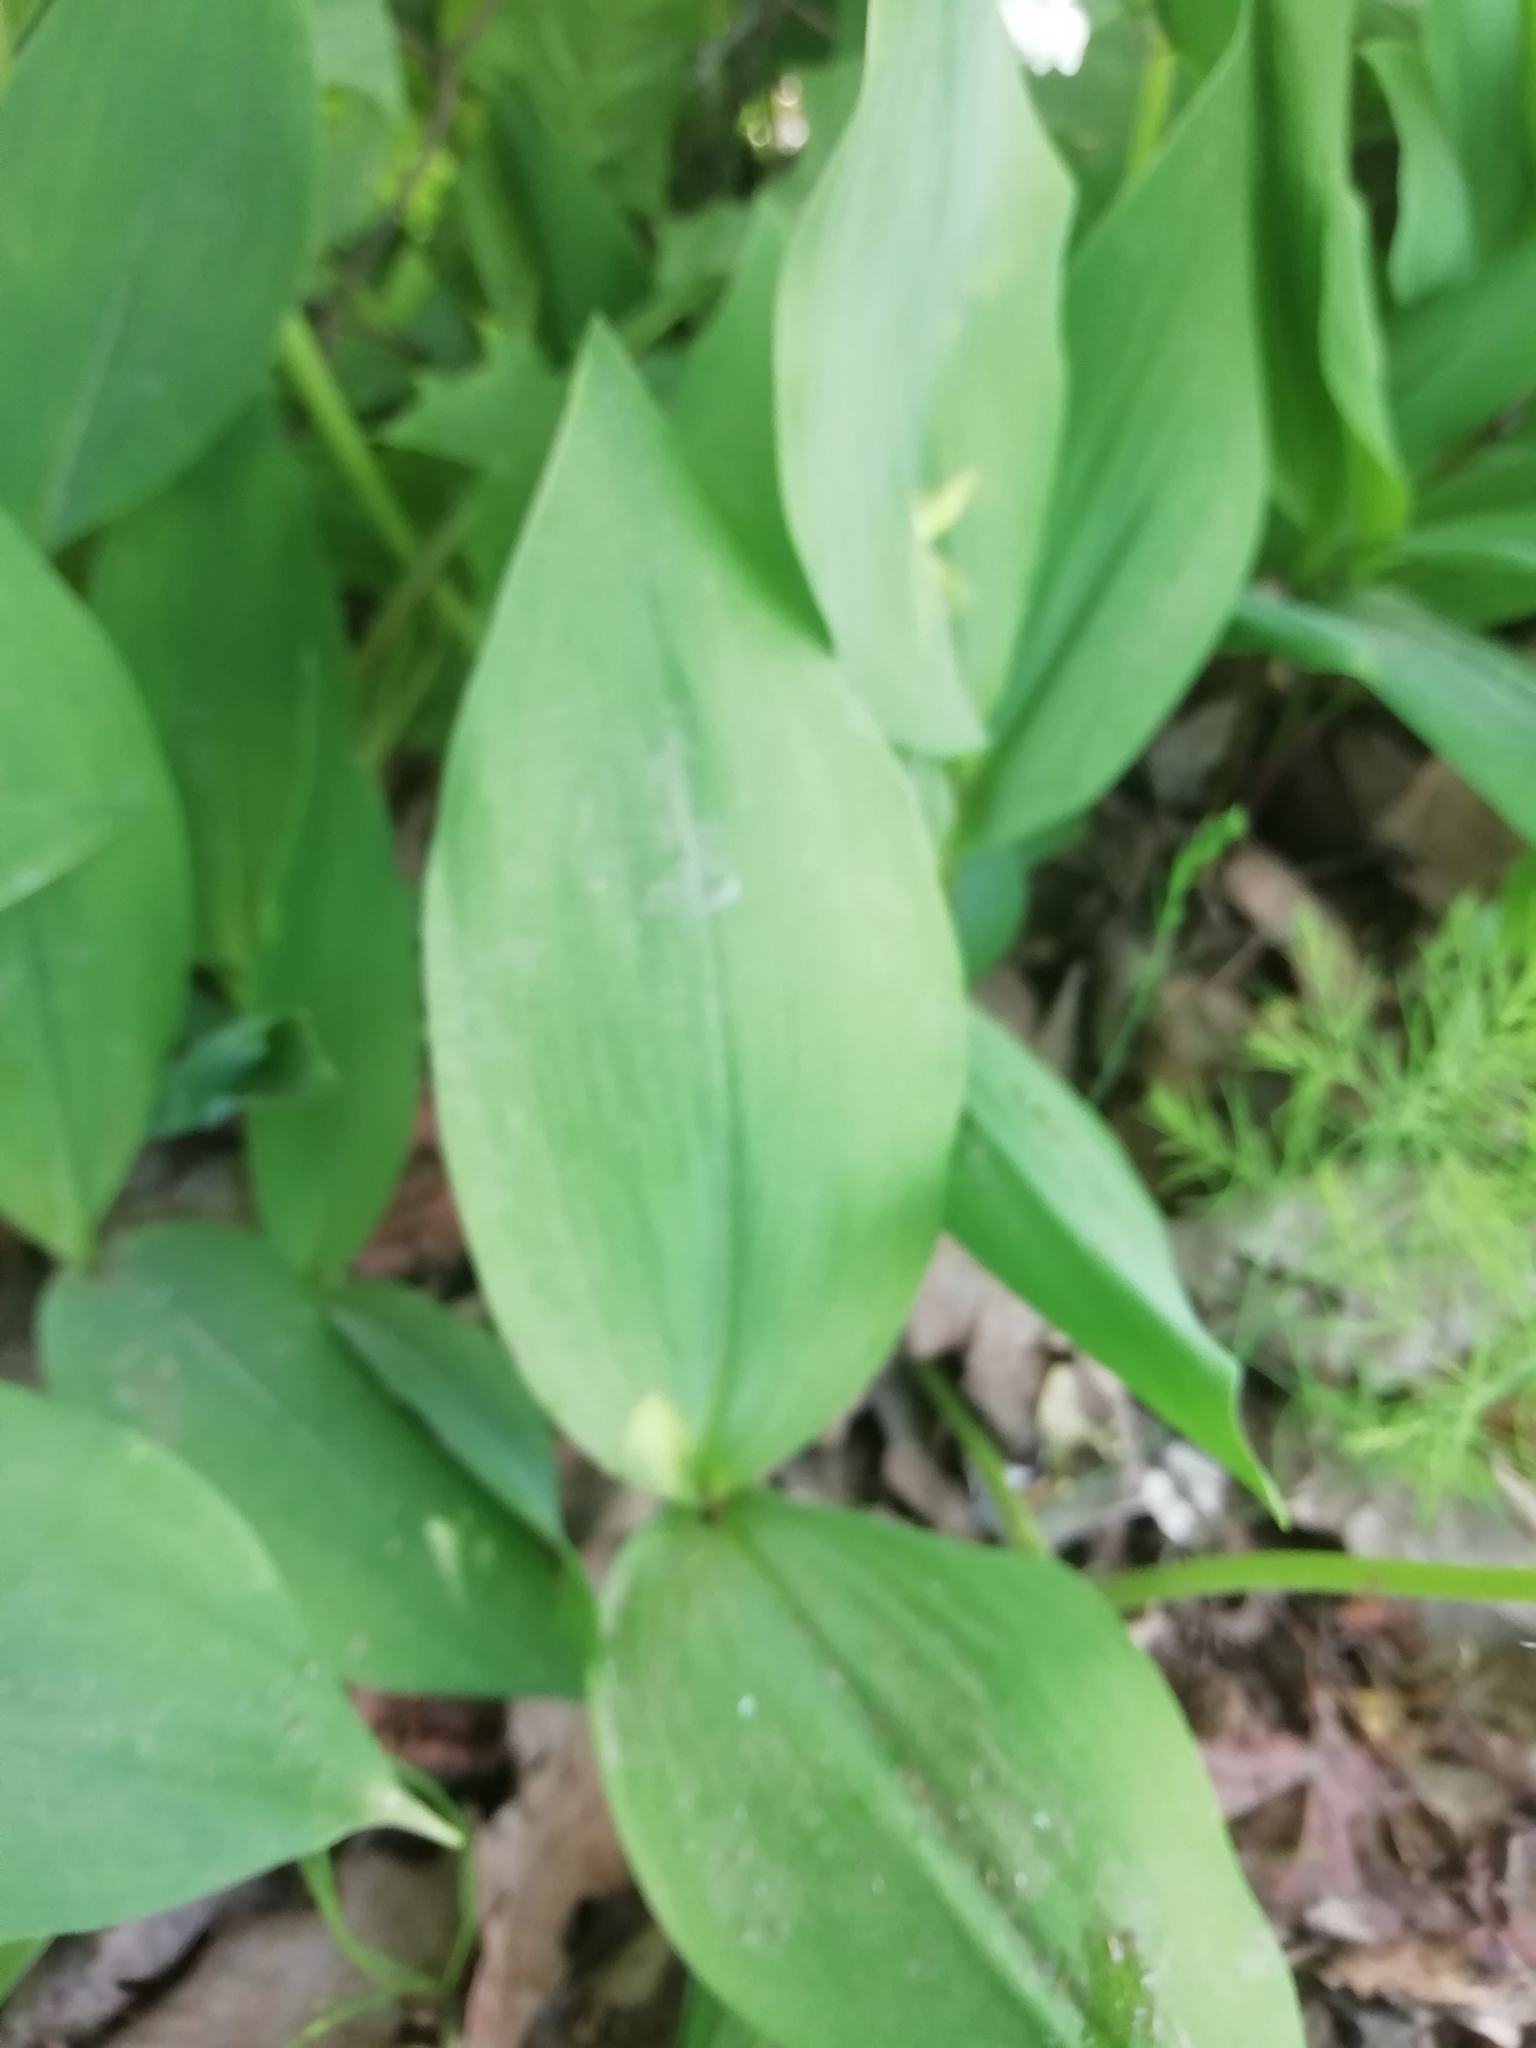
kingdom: Plantae
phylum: Tracheophyta
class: Liliopsida
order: Asparagales
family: Asparagaceae
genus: Convallaria
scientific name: Convallaria majalis
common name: Lily-of-the-valley
